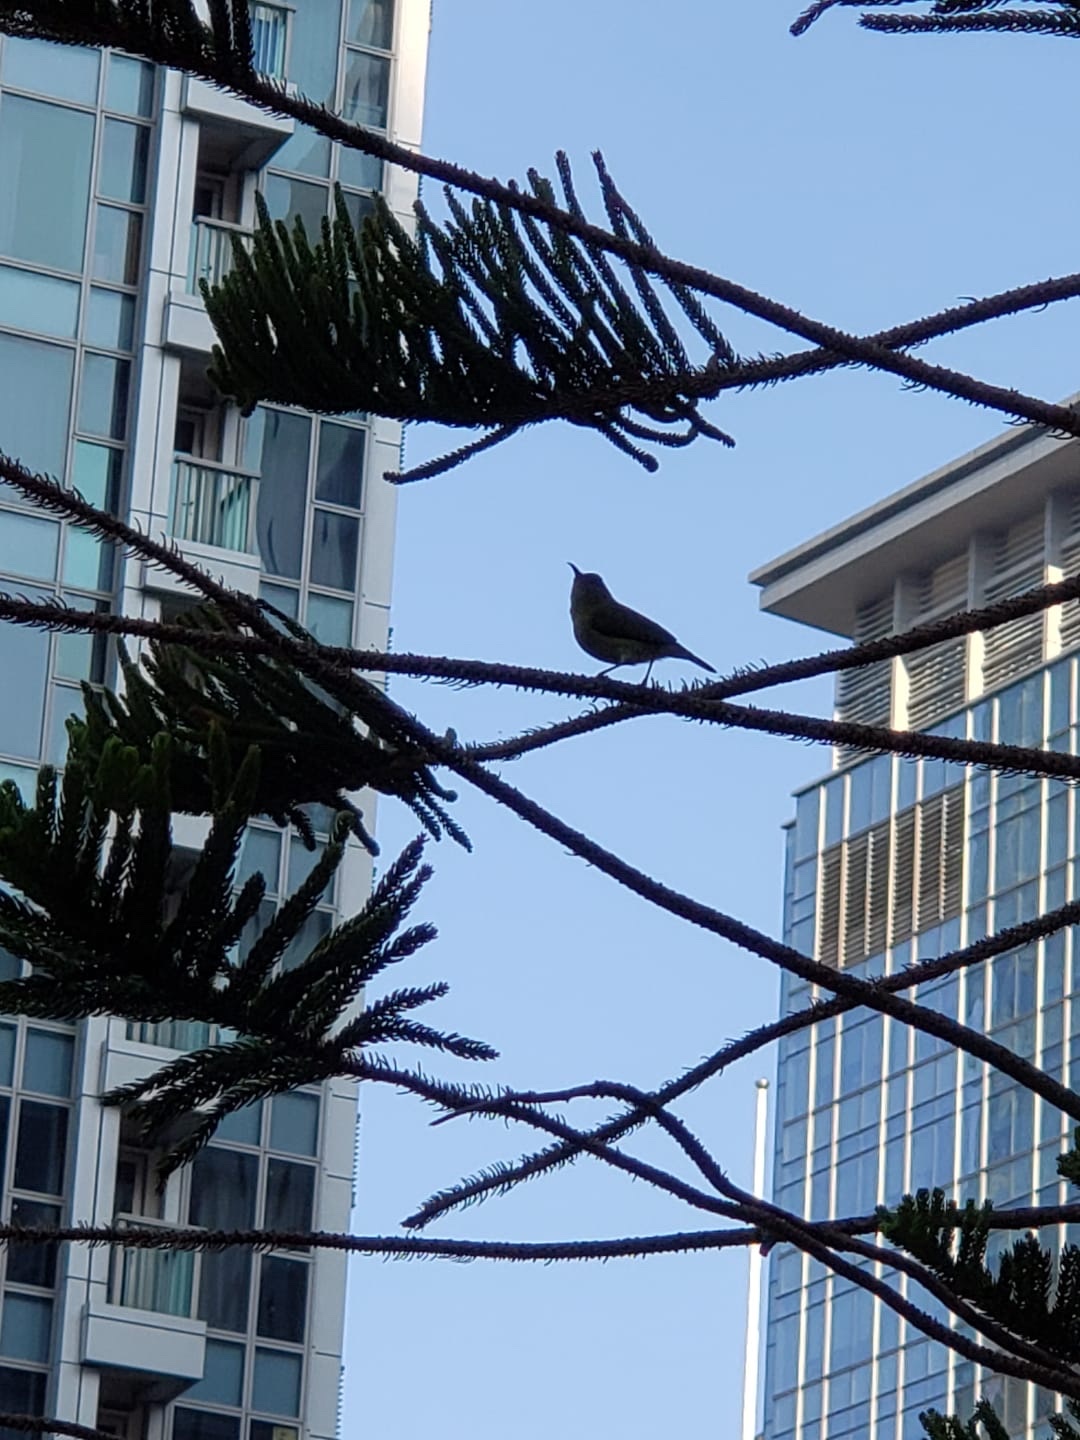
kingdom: Animalia
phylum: Chordata
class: Aves
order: Passeriformes
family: Nectariniidae
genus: Aethopyga
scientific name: Aethopyga christinae
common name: Fork-tailed sunbird
